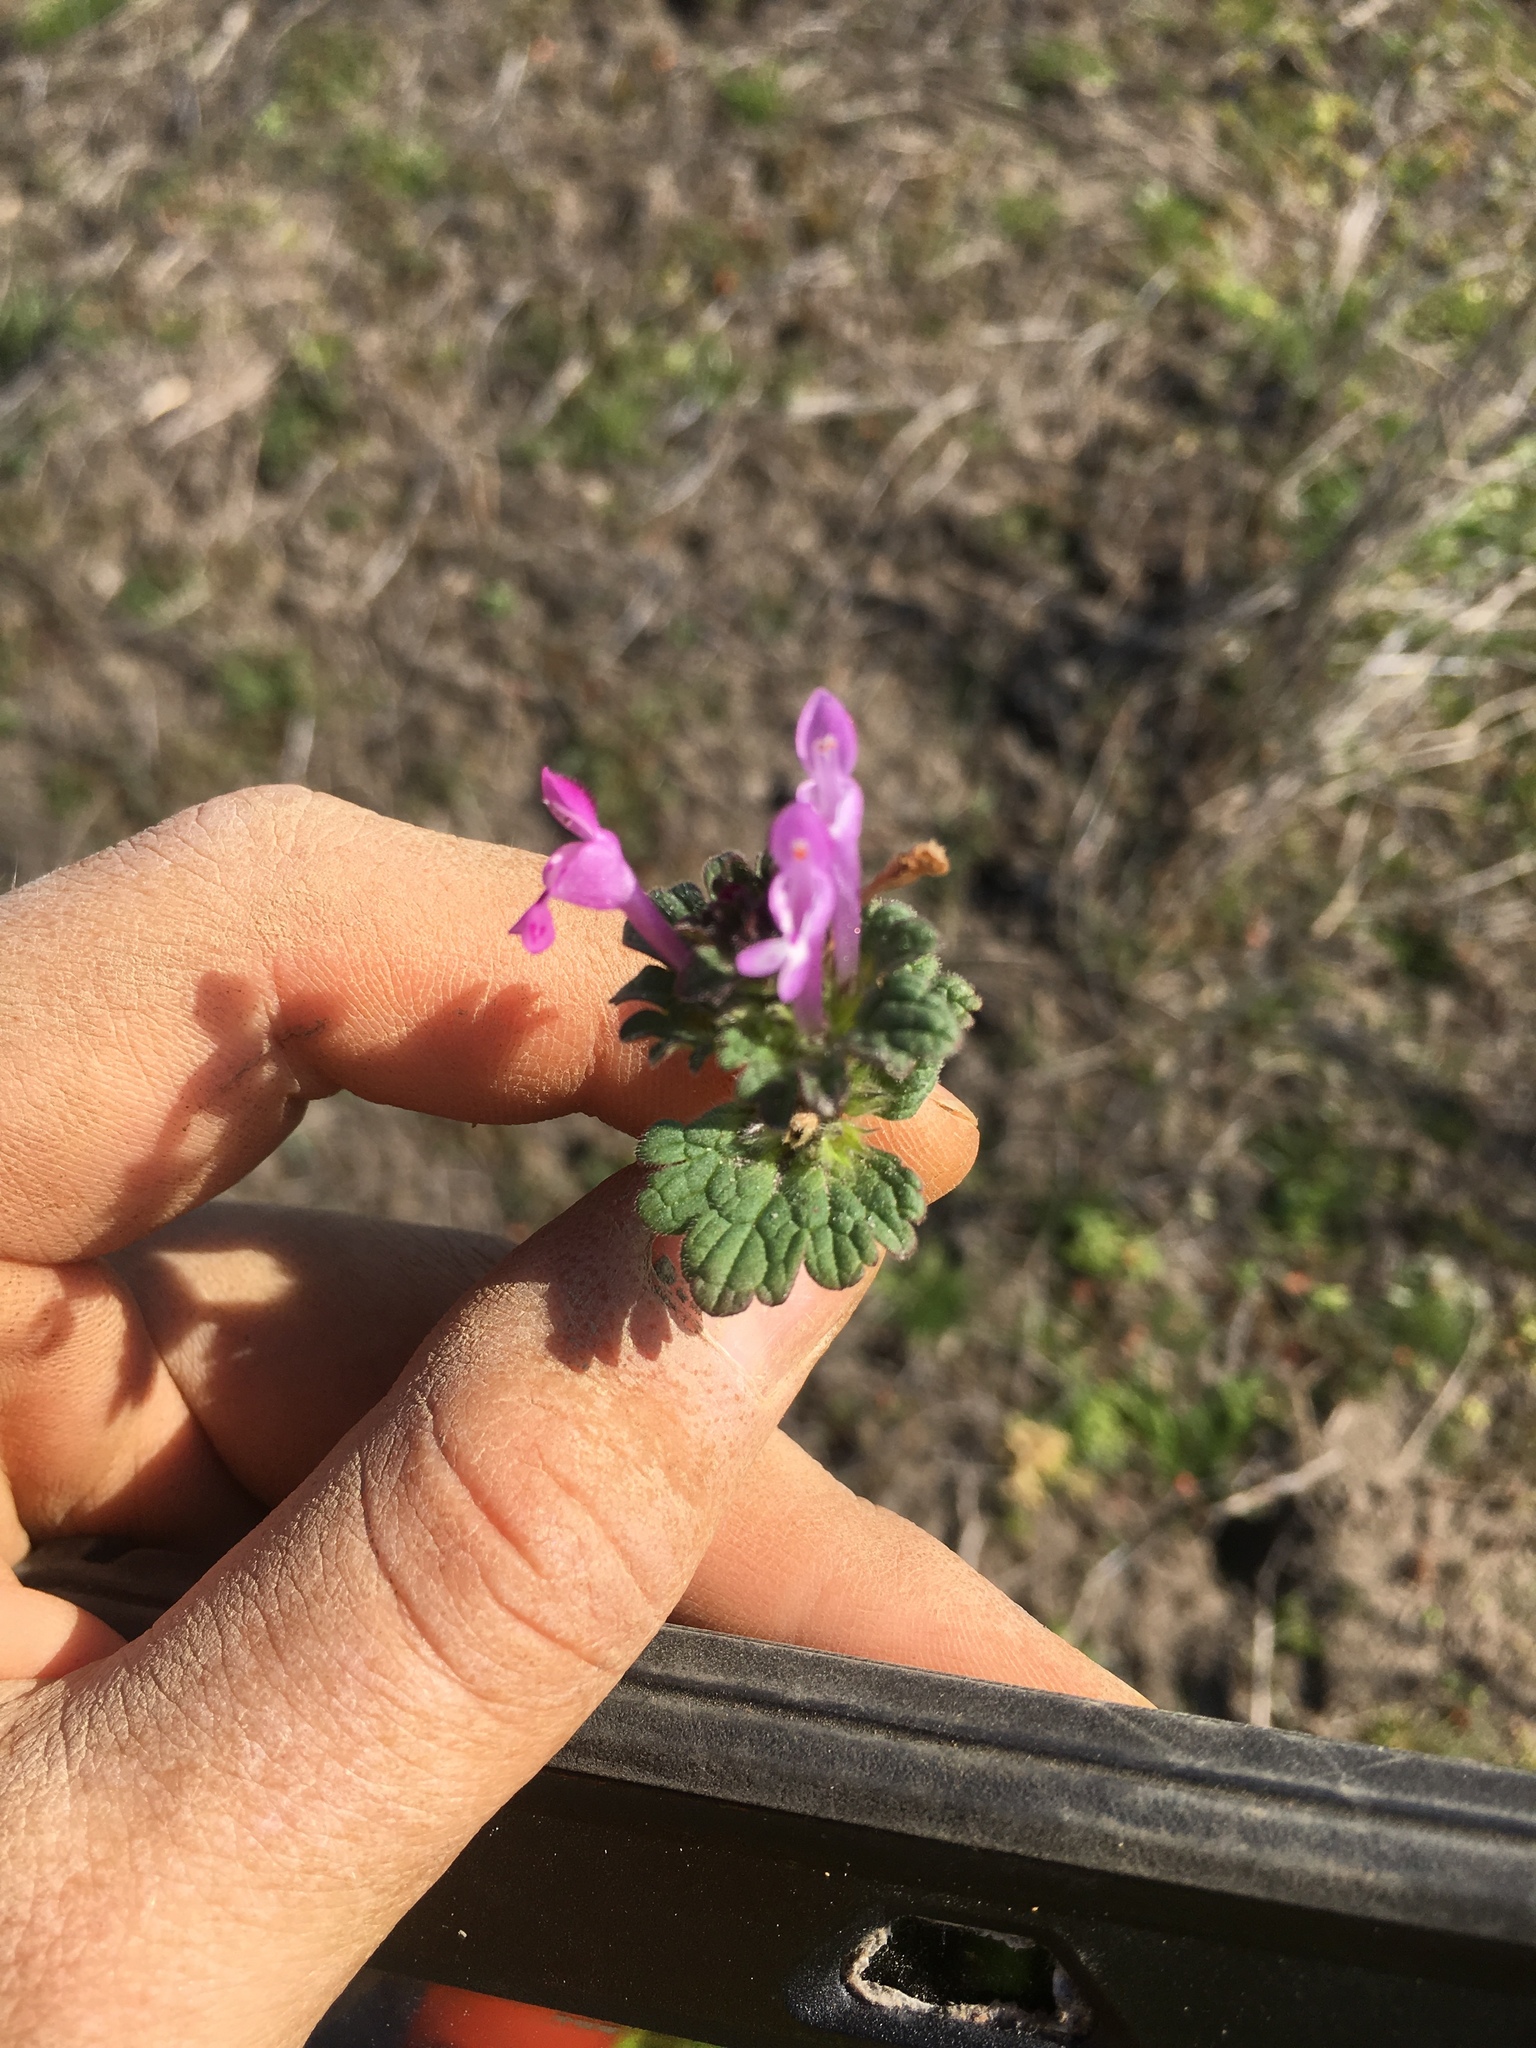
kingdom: Plantae
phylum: Tracheophyta
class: Magnoliopsida
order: Lamiales
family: Lamiaceae
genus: Lamium
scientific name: Lamium amplexicaule
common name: Henbit dead-nettle
